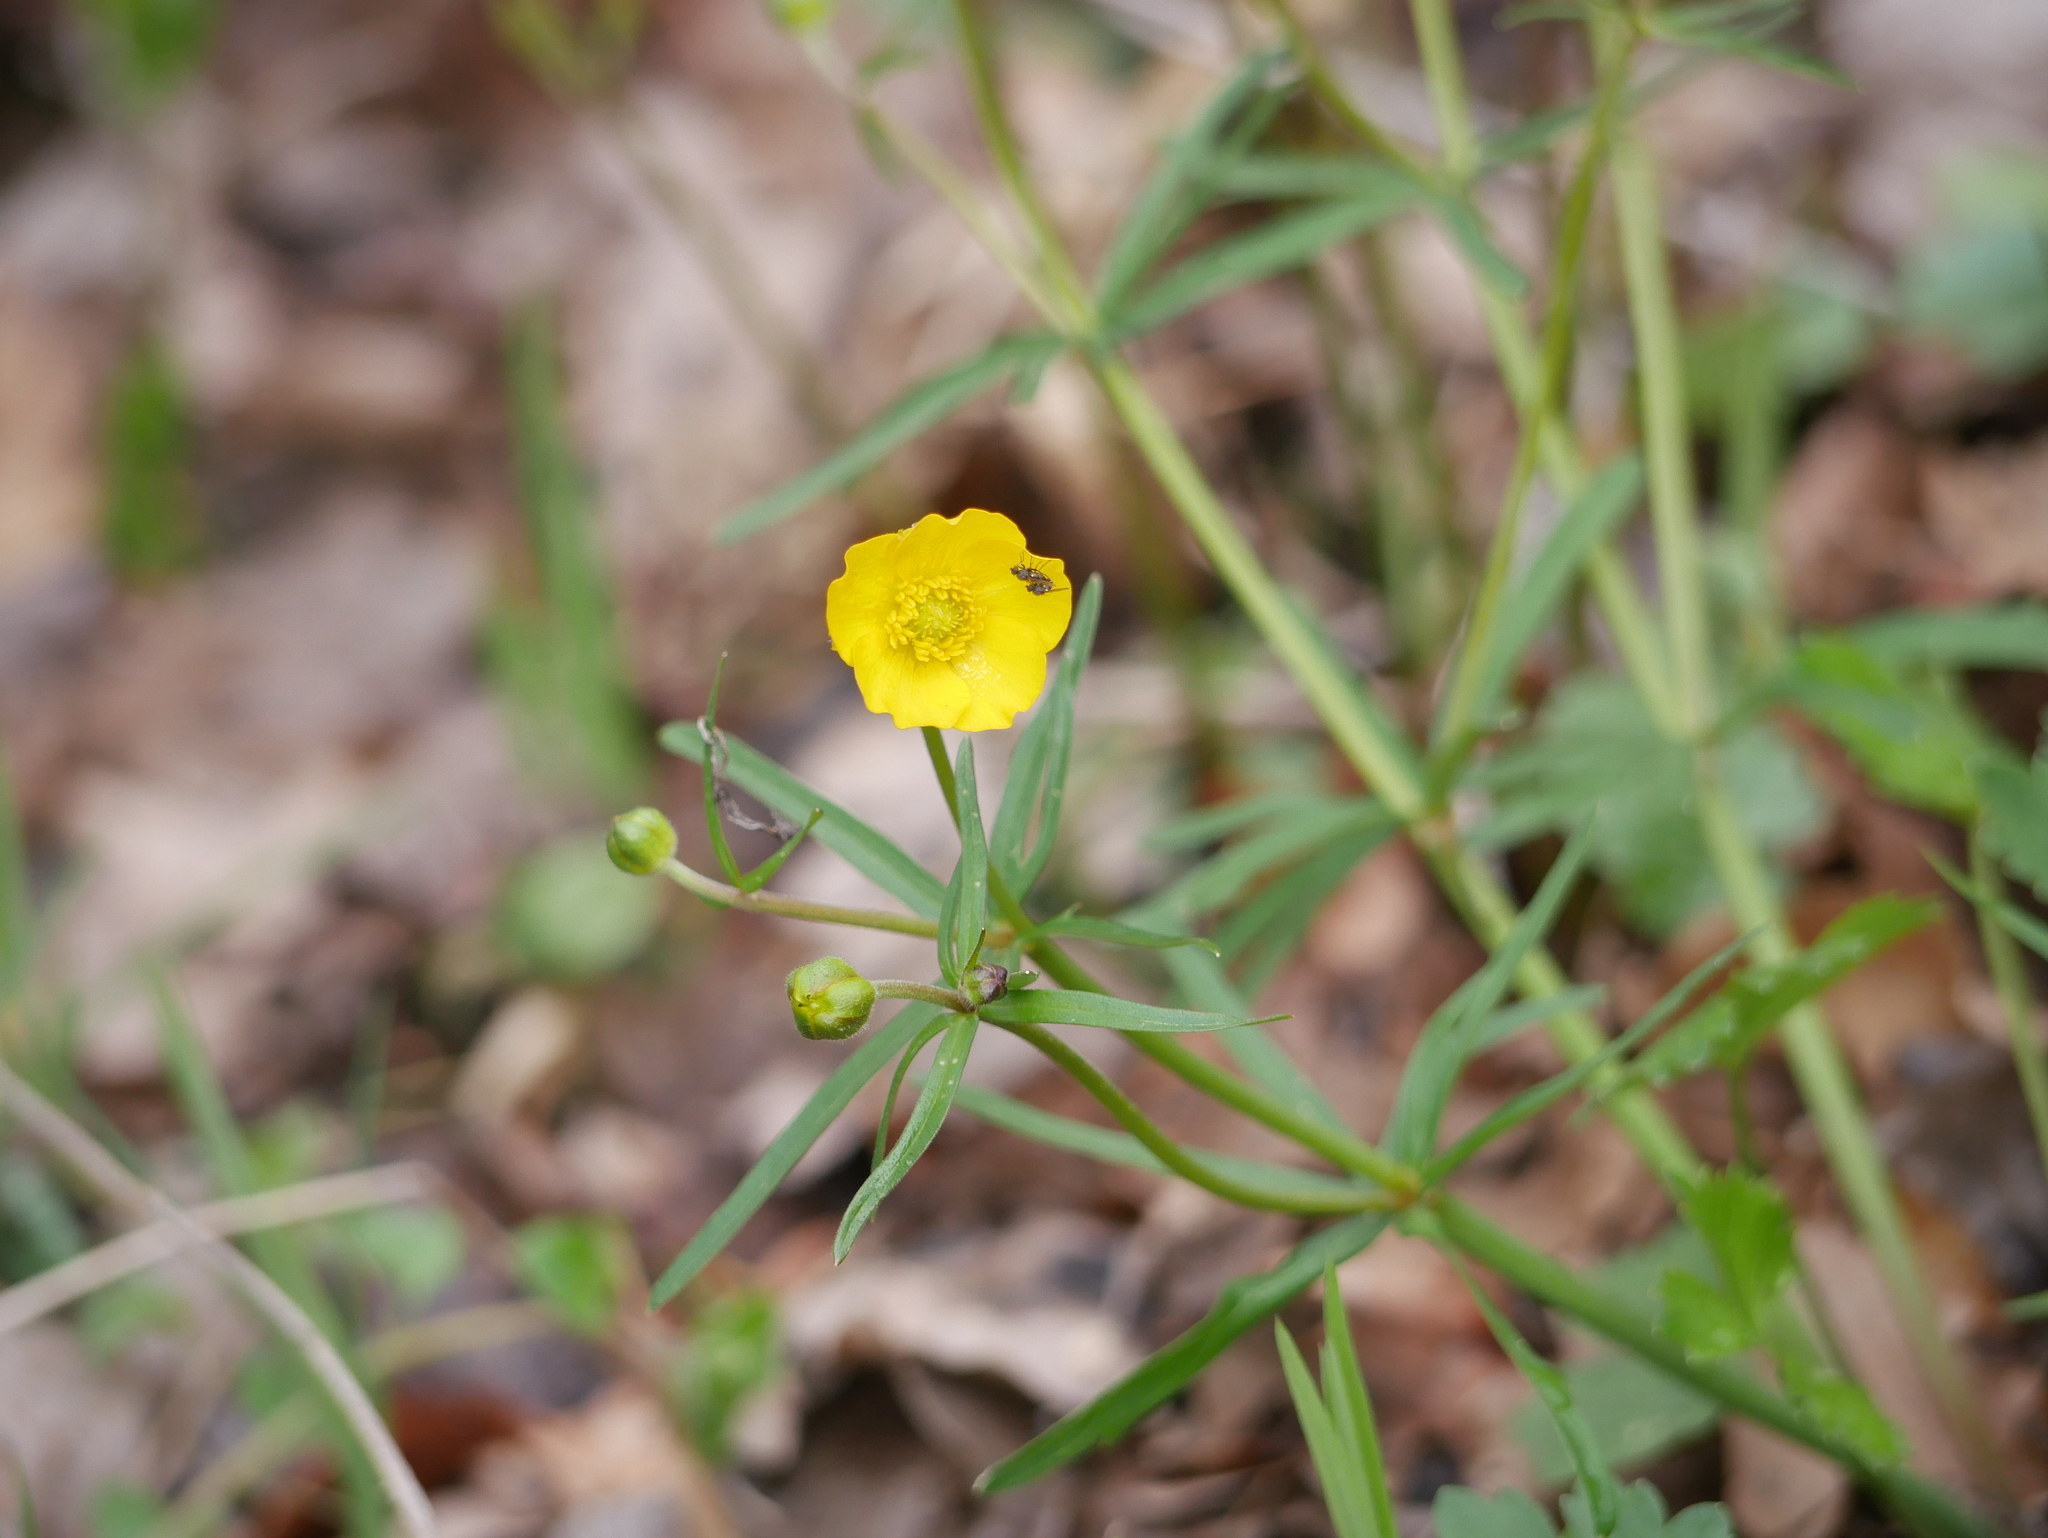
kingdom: Plantae
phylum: Tracheophyta
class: Magnoliopsida
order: Ranunculales
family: Ranunculaceae
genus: Ranunculus
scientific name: Ranunculus auricomus
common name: Goldilocks buttercup
